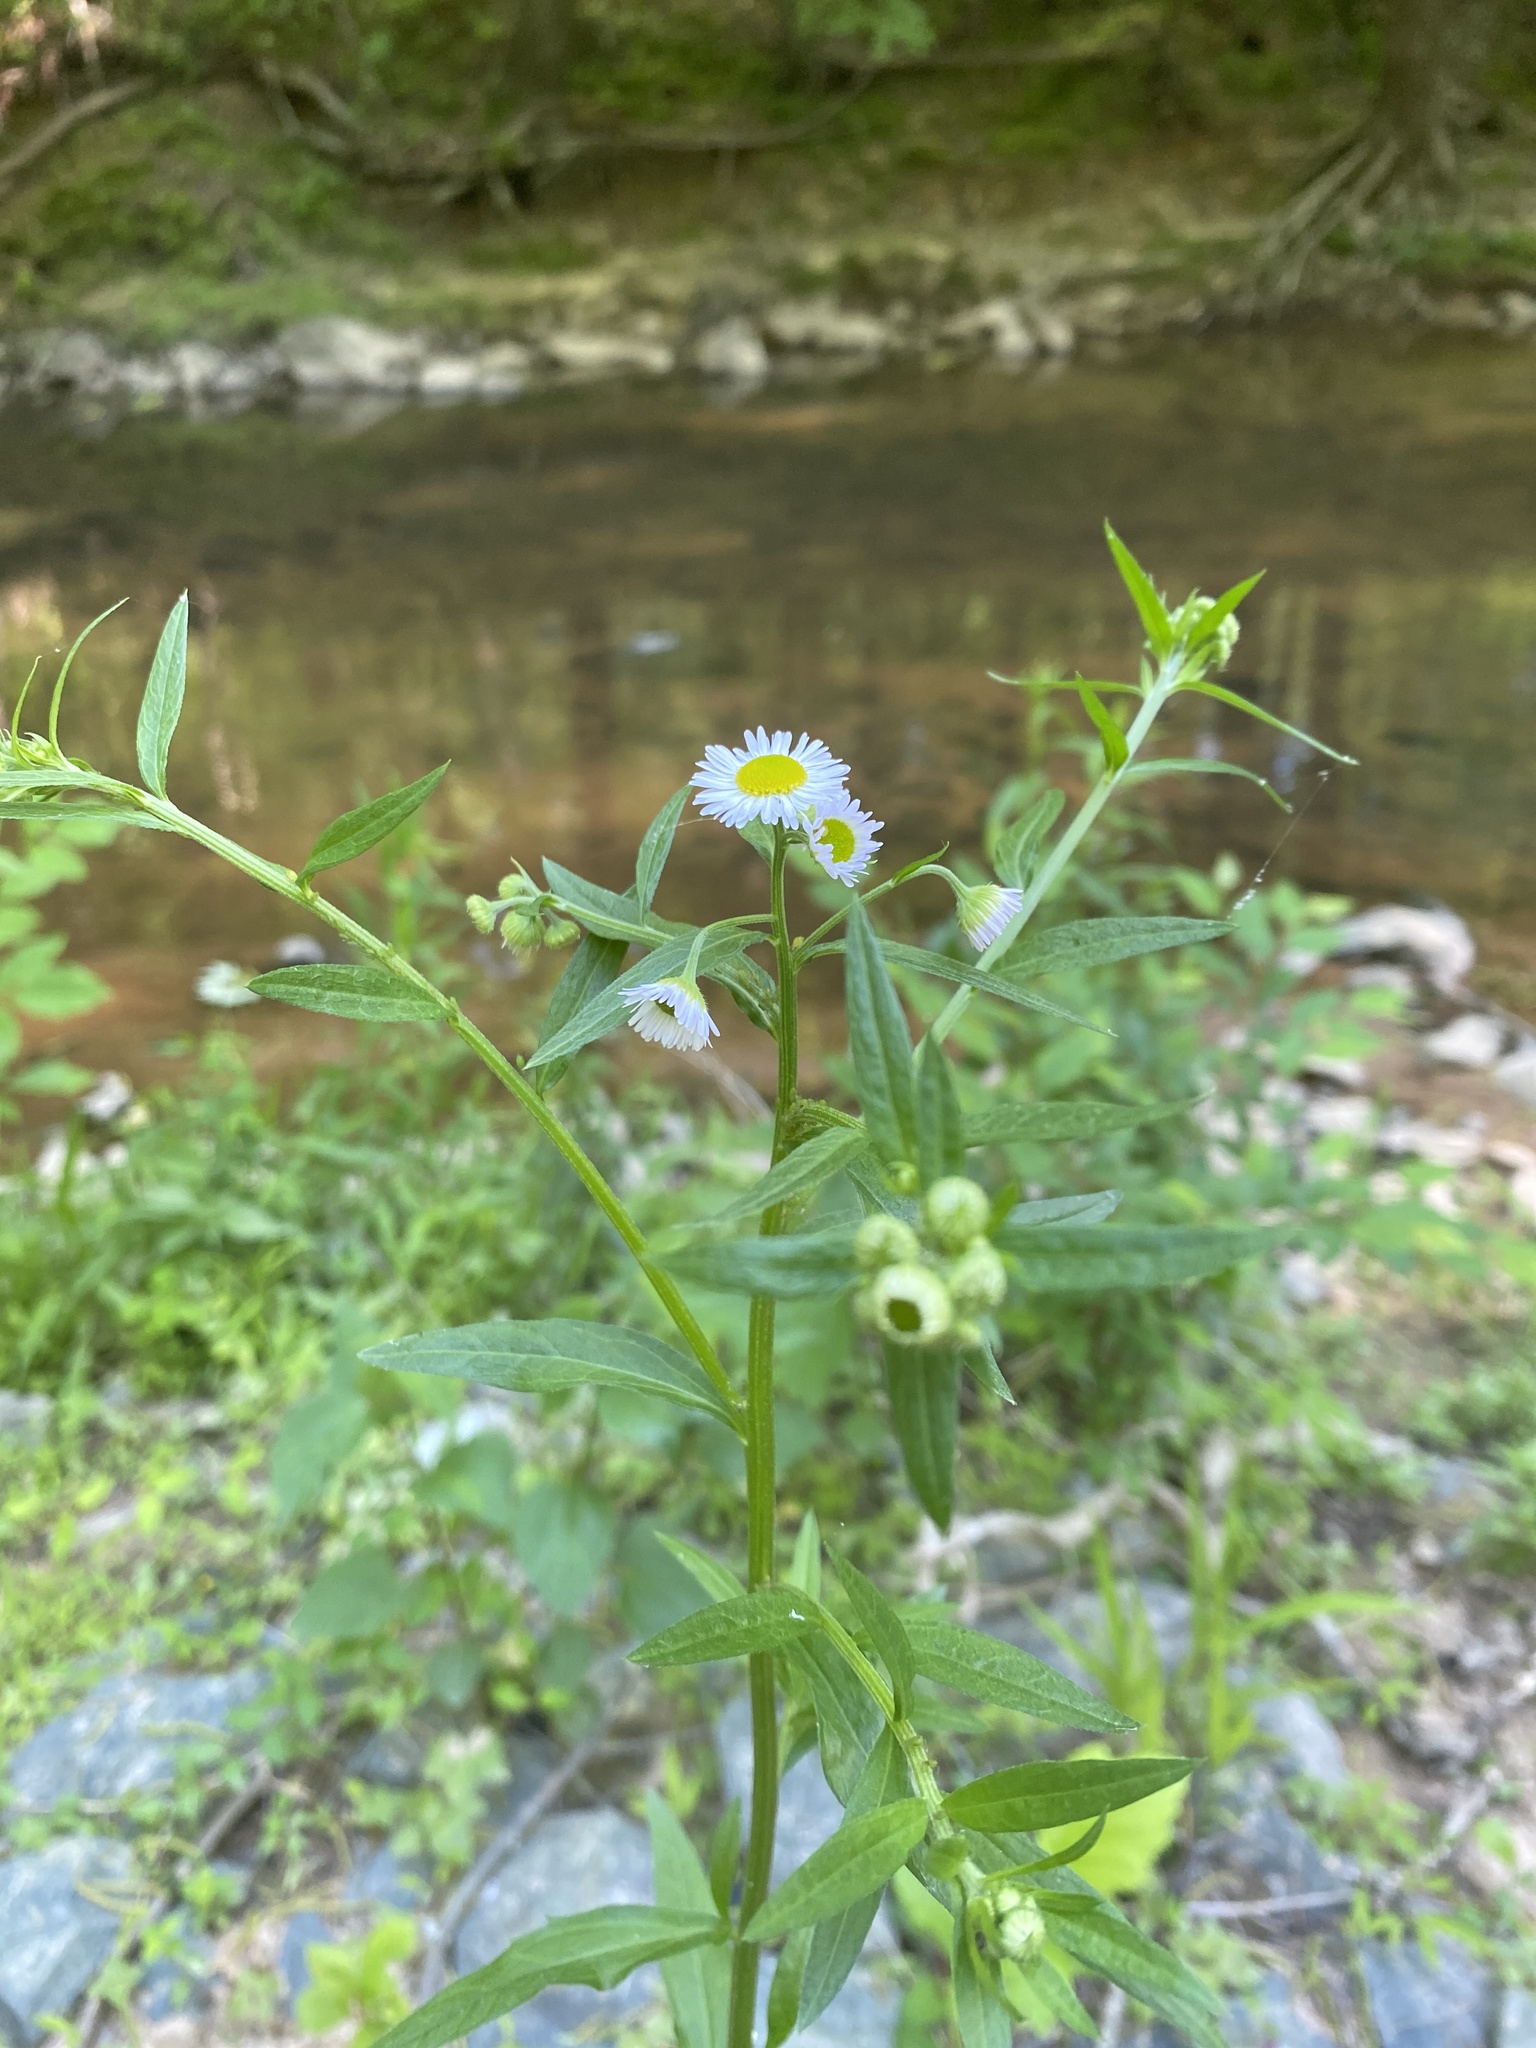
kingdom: Plantae
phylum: Tracheophyta
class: Magnoliopsida
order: Asterales
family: Asteraceae
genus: Erigeron
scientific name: Erigeron annuus
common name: Tall fleabane
